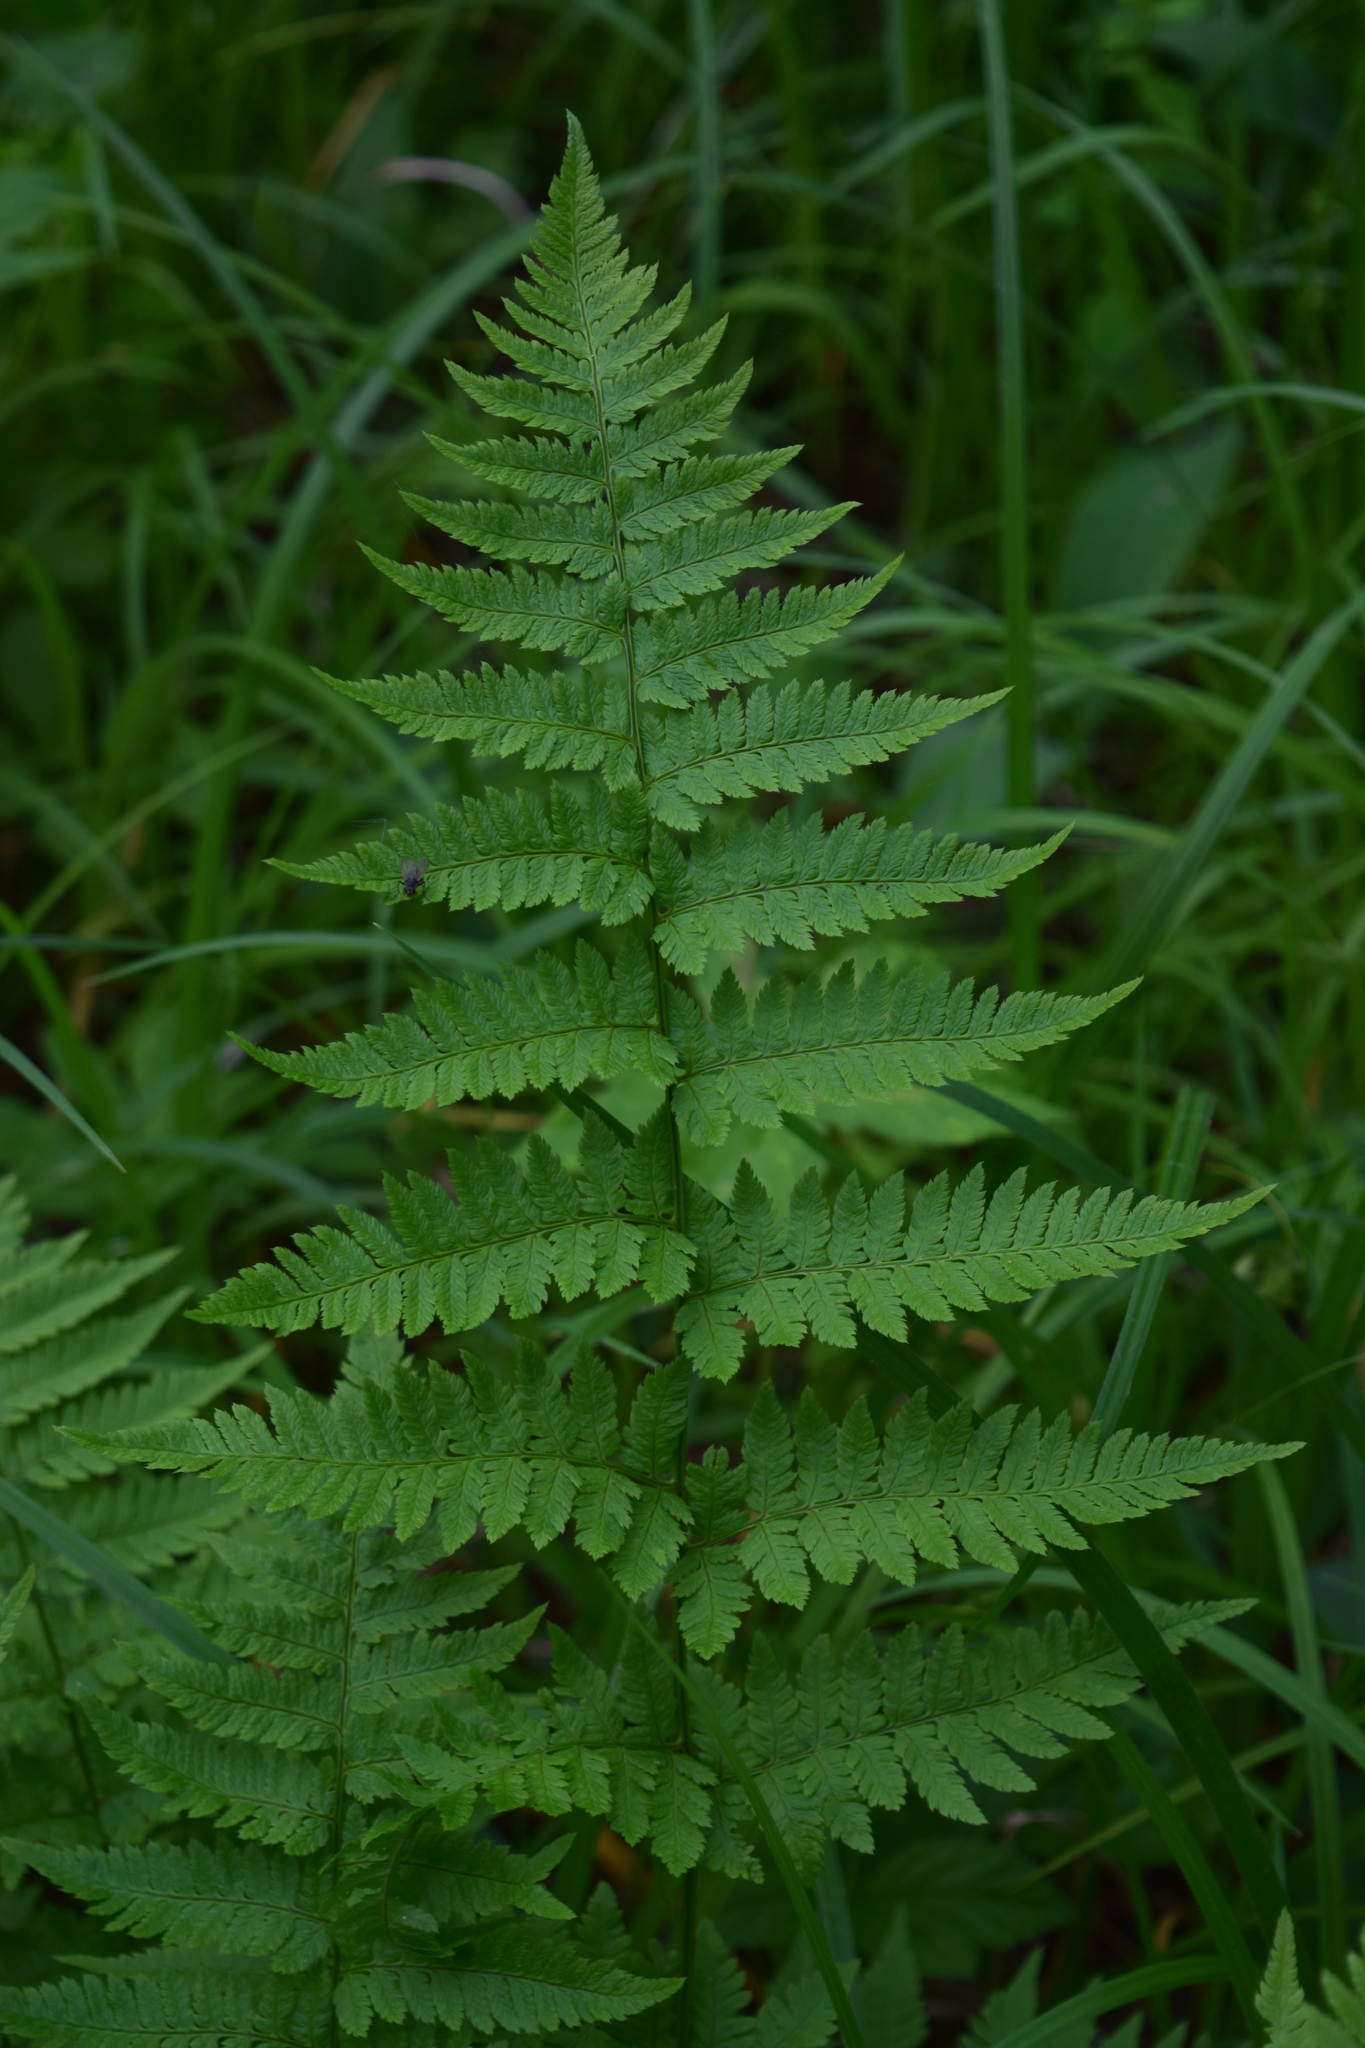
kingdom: Plantae
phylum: Tracheophyta
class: Polypodiopsida
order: Polypodiales
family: Dryopteridaceae
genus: Dryopteris
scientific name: Dryopteris carthusiana
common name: Narrow buckler-fern
